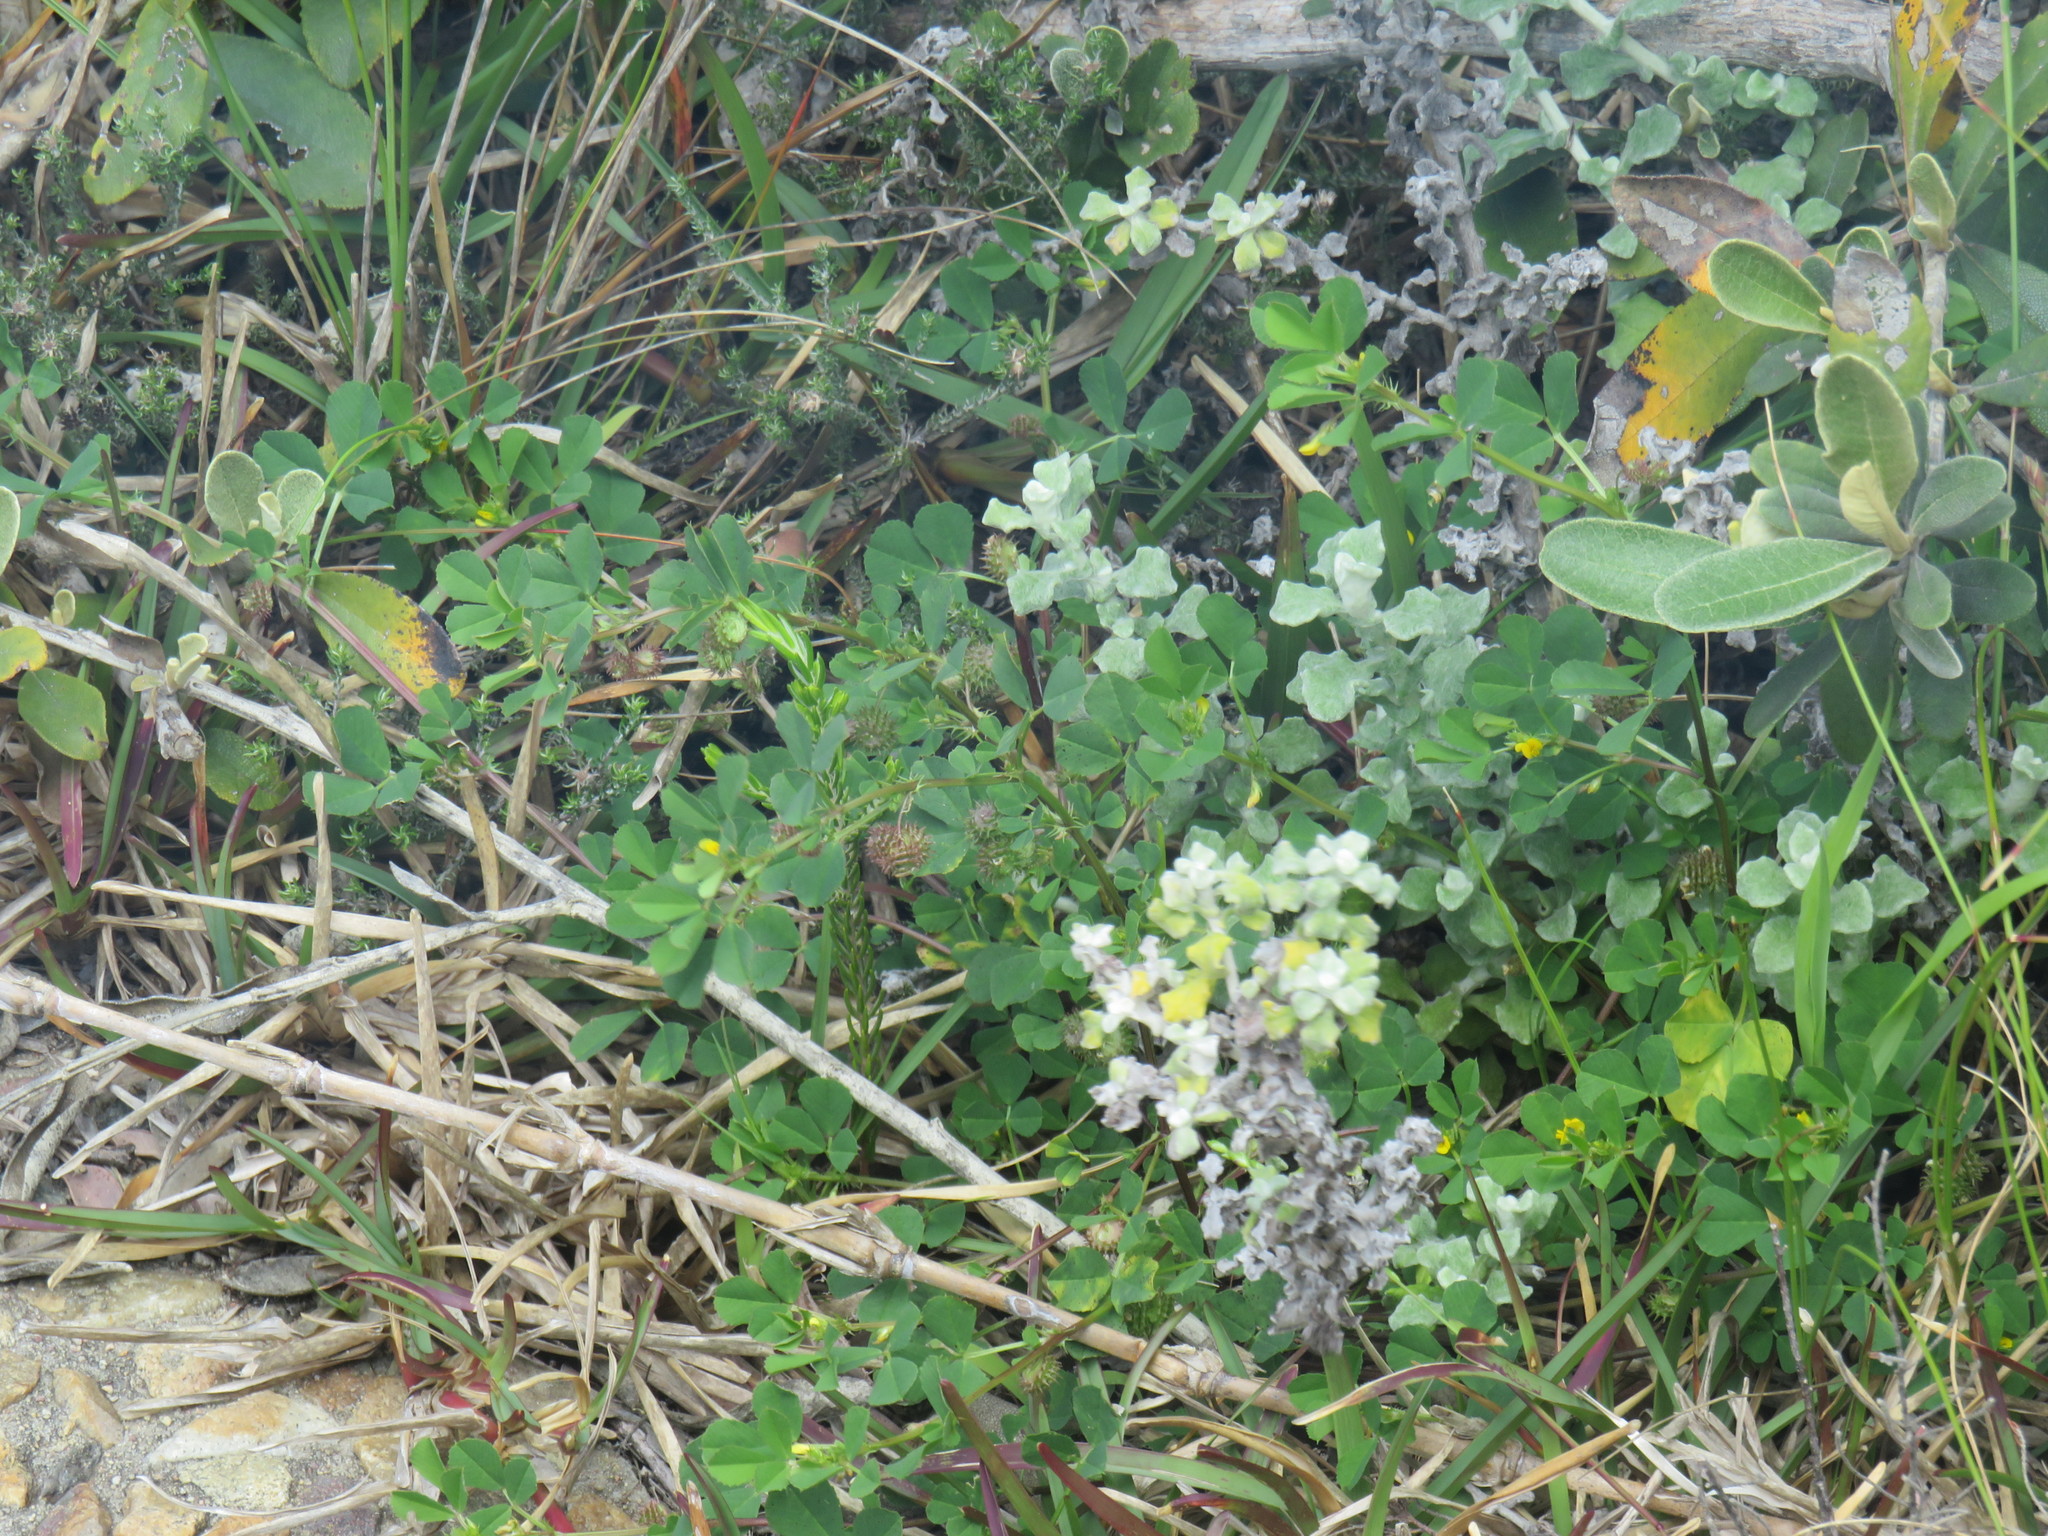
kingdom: Plantae
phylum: Tracheophyta
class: Magnoliopsida
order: Fabales
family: Fabaceae
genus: Medicago
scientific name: Medicago polymorpha
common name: Burclover
